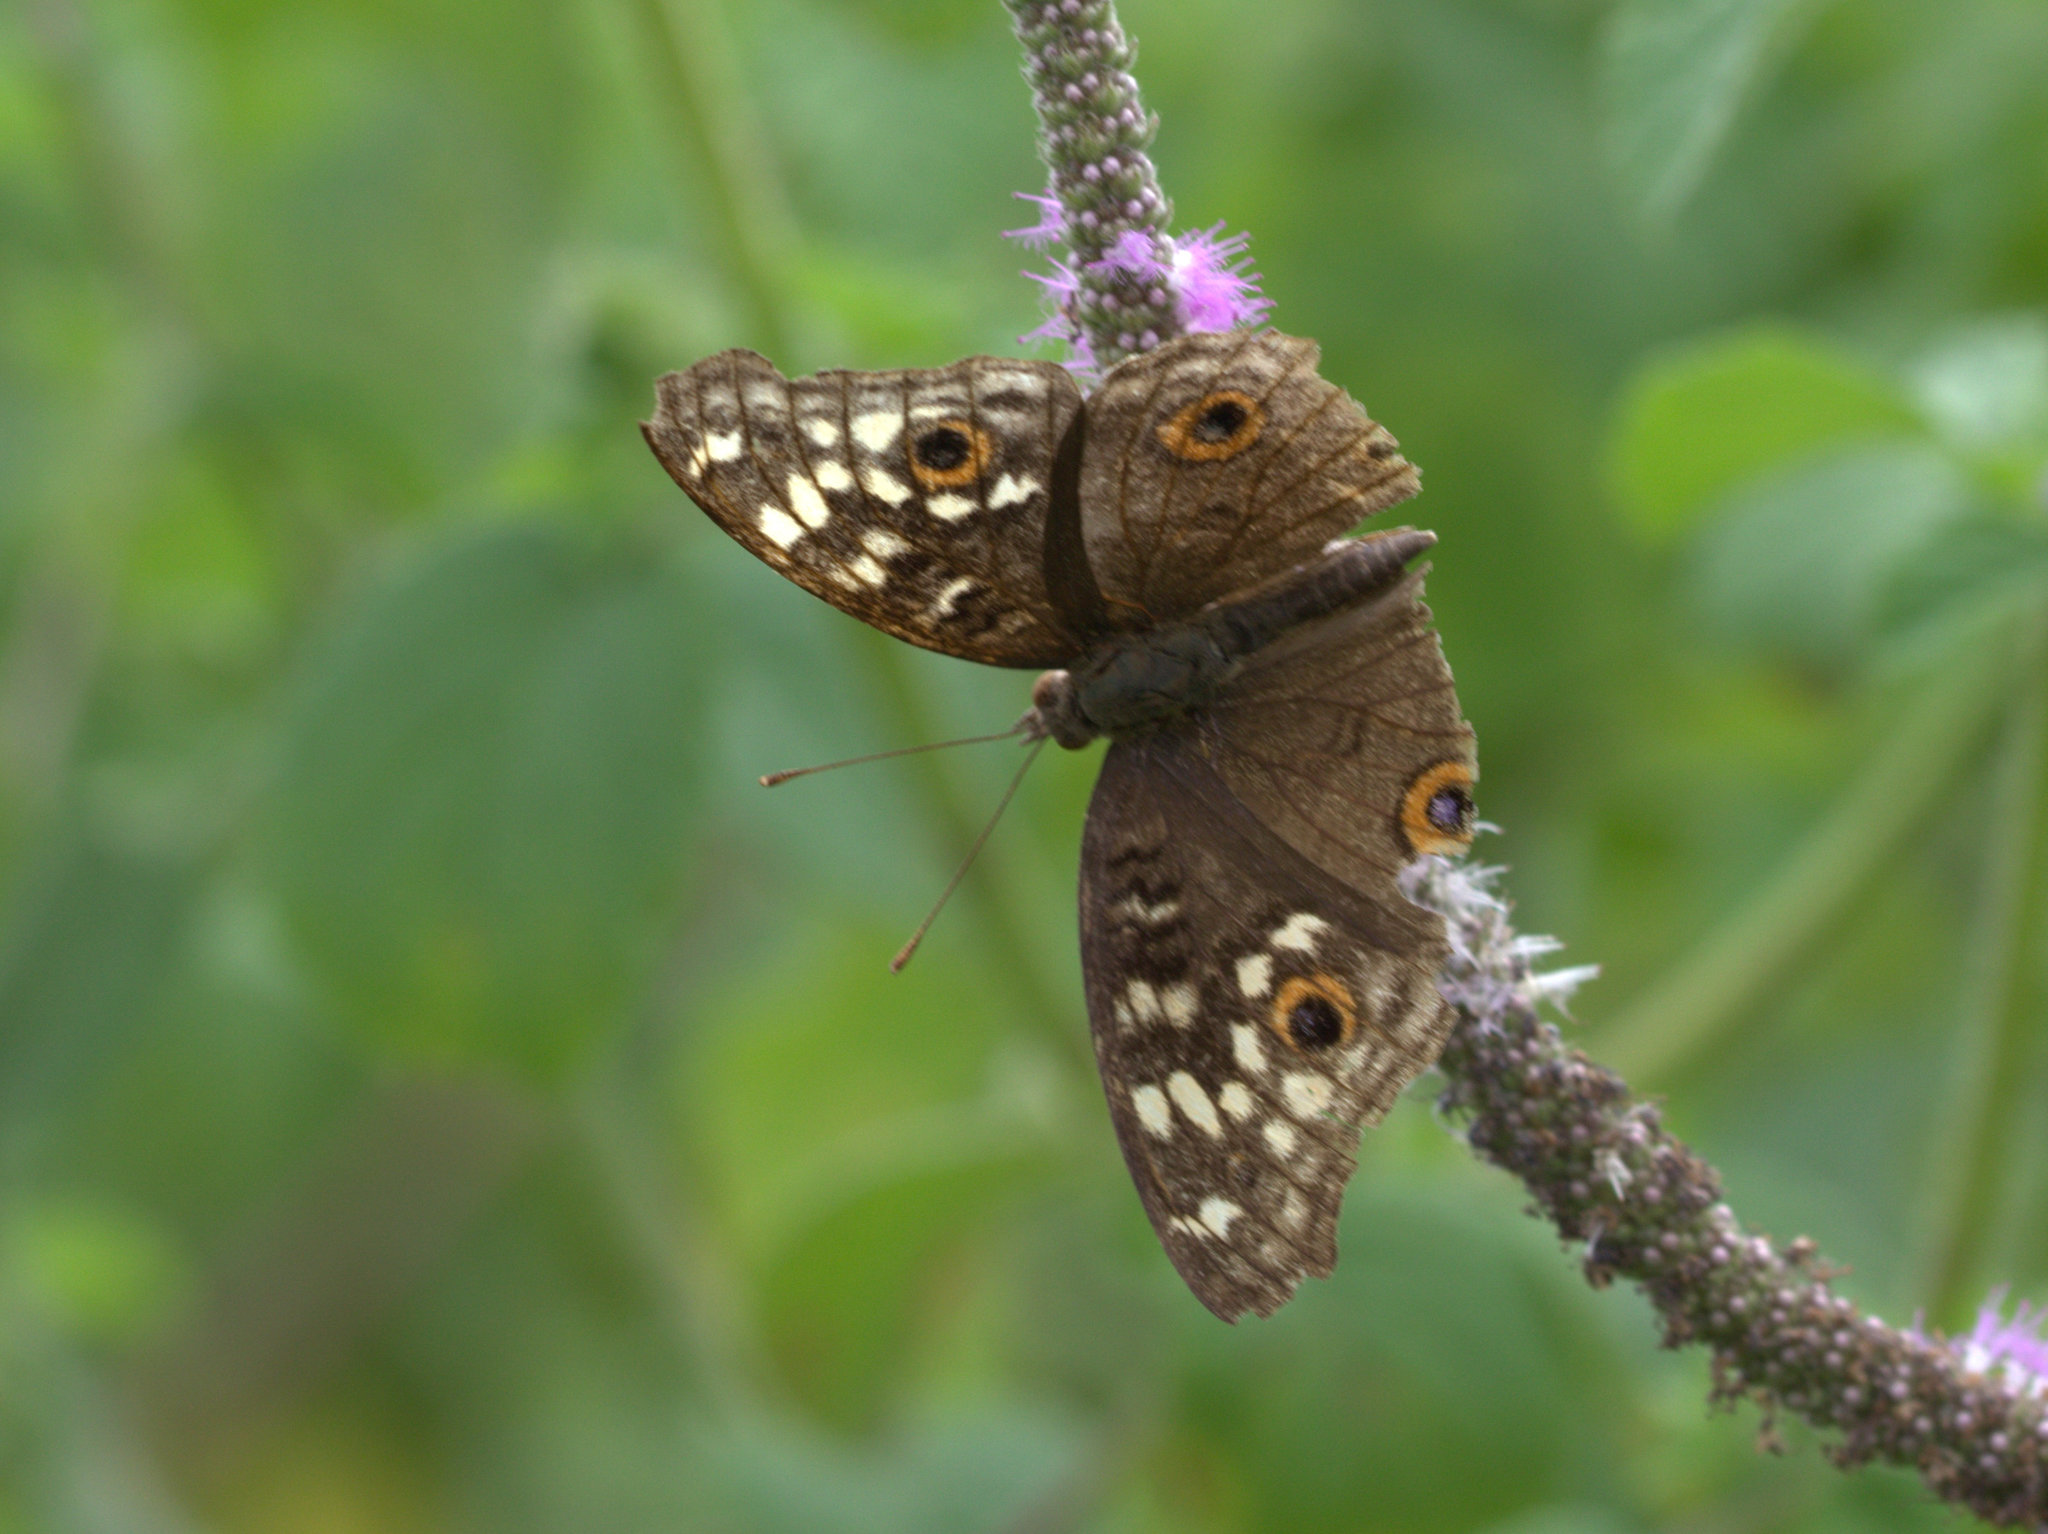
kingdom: Animalia
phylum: Arthropoda
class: Insecta
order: Lepidoptera
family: Nymphalidae
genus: Junonia
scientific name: Junonia lemonias
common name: Lemon pansy
